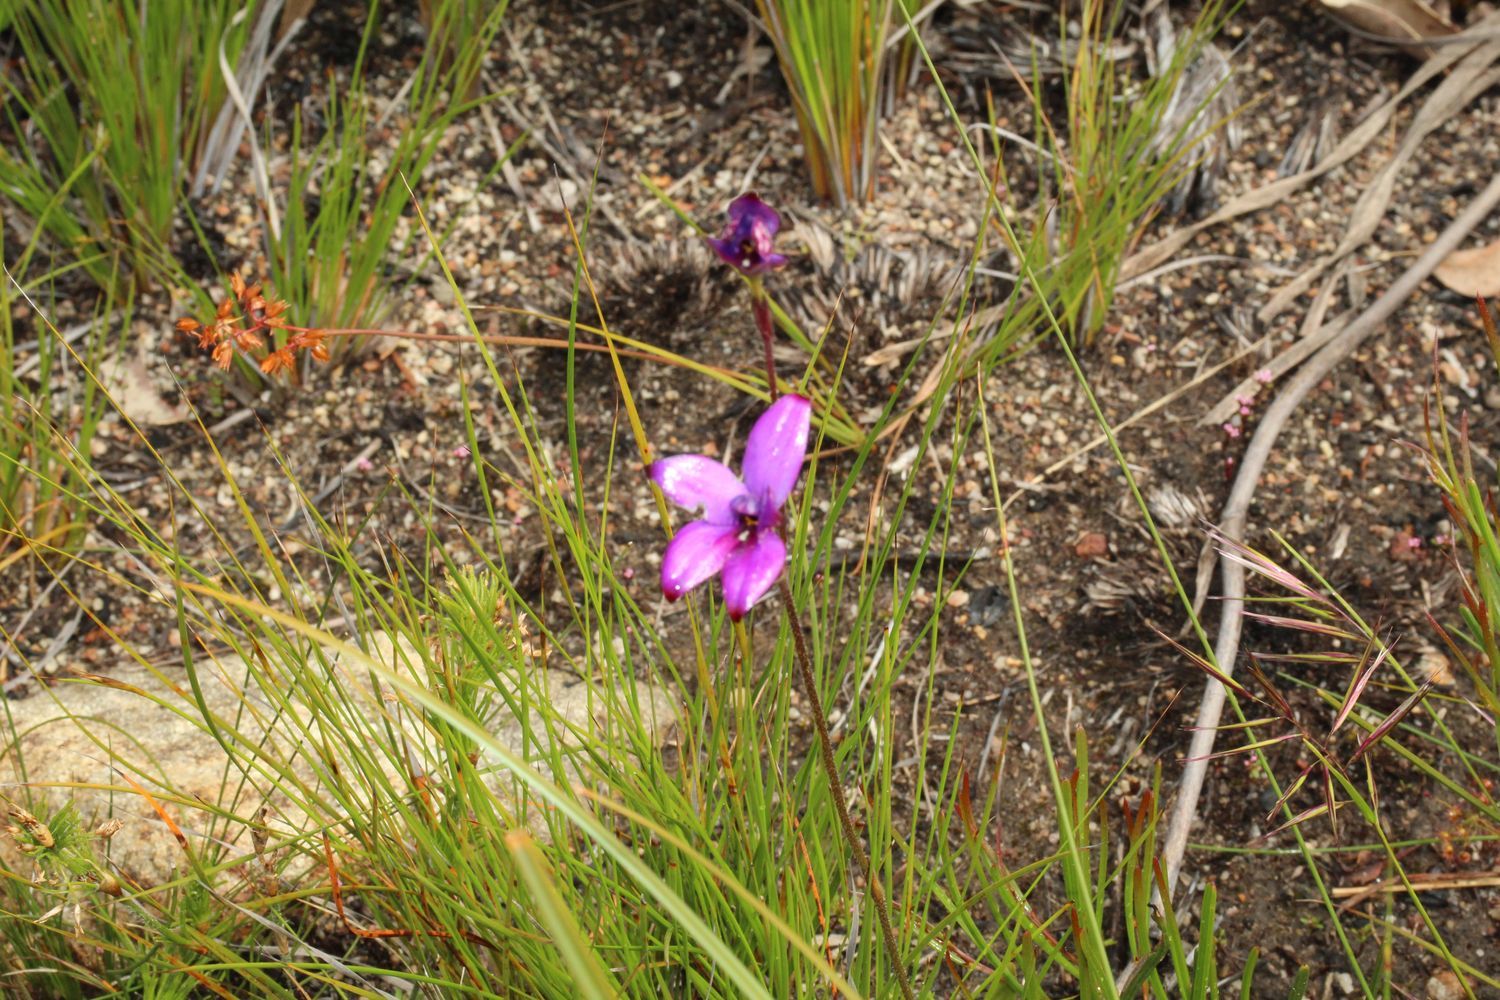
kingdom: Plantae
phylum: Tracheophyta
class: Liliopsida
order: Asparagales
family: Orchidaceae
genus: Caladenia
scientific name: Caladenia brunonis
